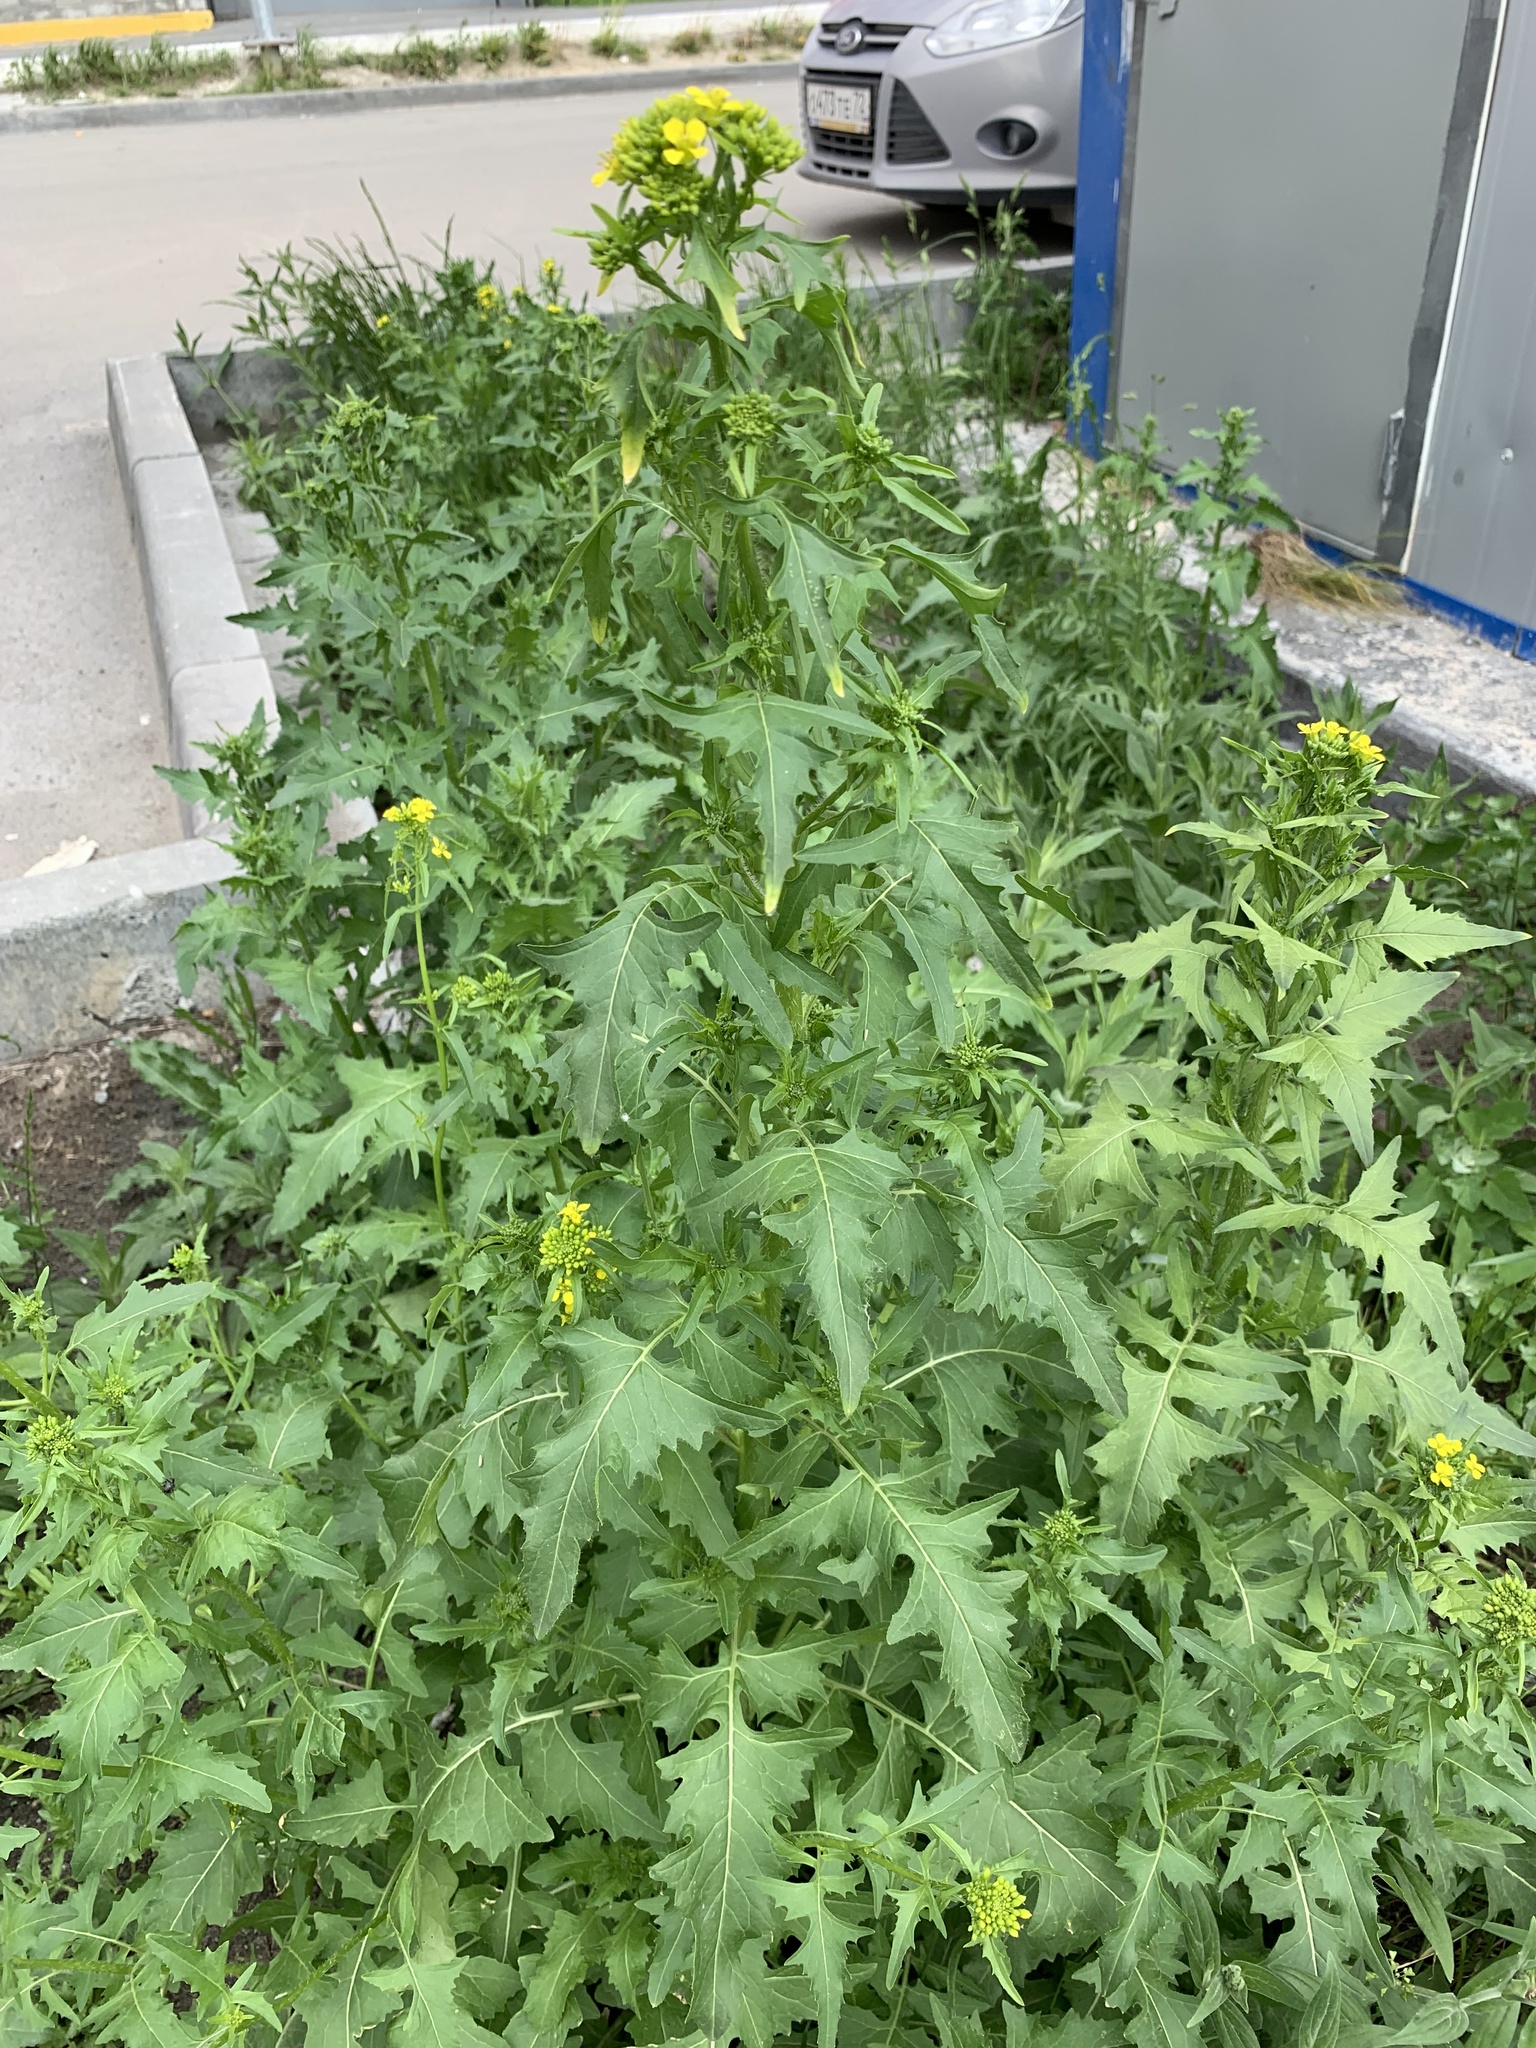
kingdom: Plantae
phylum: Tracheophyta
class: Magnoliopsida
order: Brassicales
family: Brassicaceae
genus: Sisymbrium
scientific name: Sisymbrium loeselii
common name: False london-rocket
